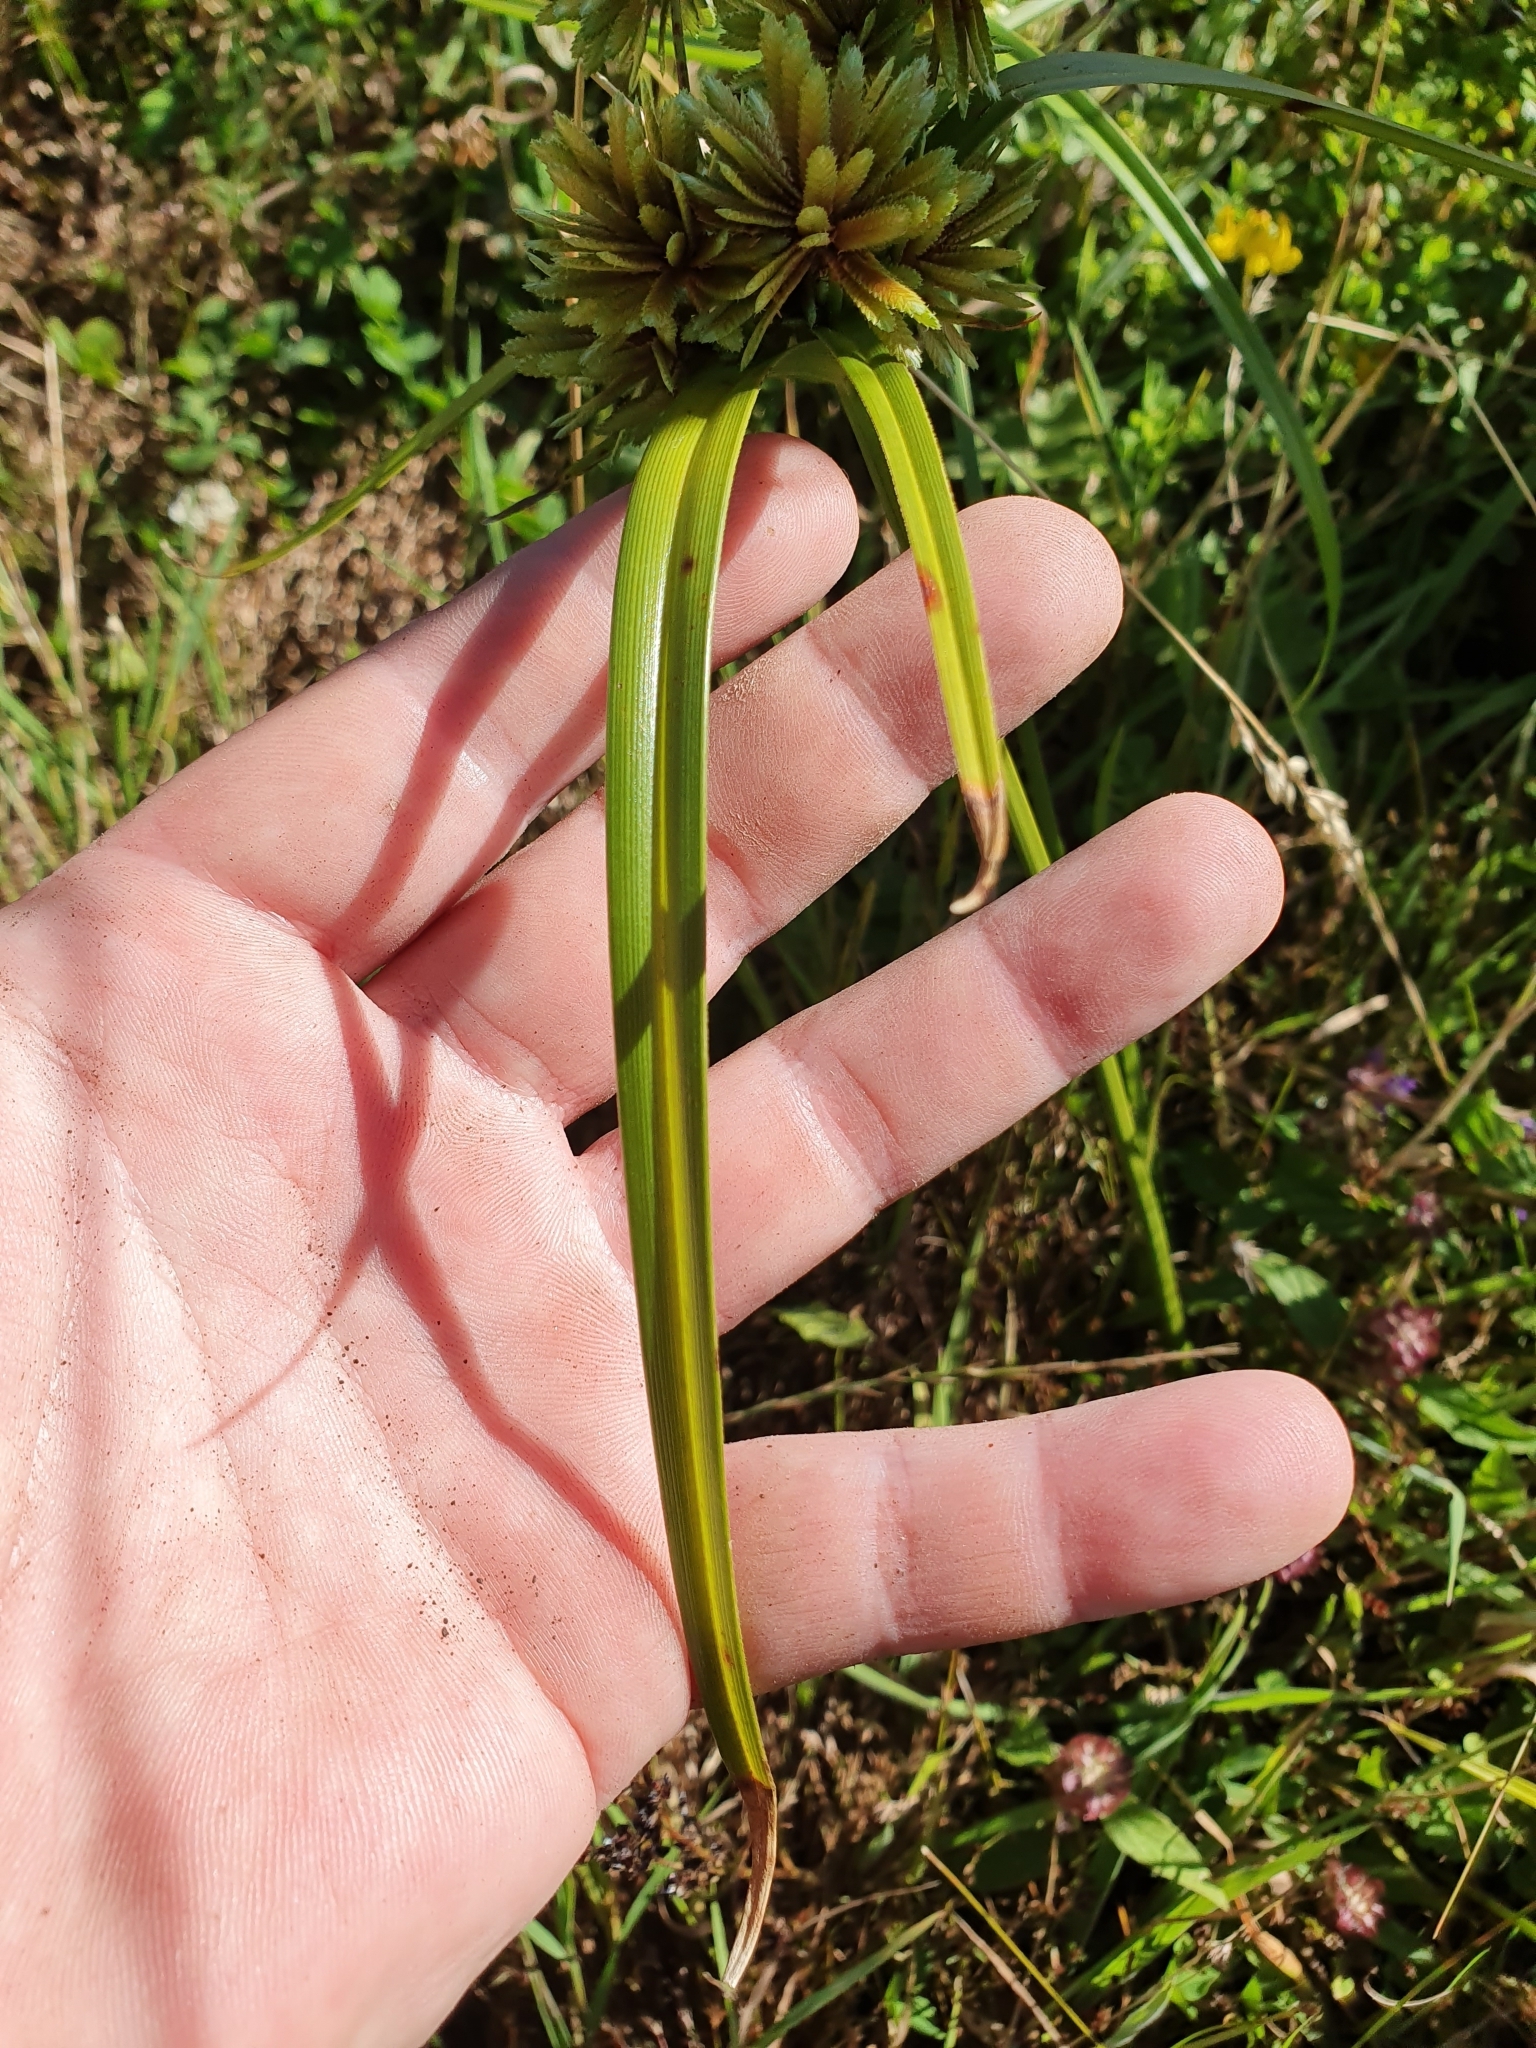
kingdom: Plantae
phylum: Tracheophyta
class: Liliopsida
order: Poales
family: Cyperaceae
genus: Cyperus
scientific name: Cyperus eragrostis
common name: Tall flatsedge
